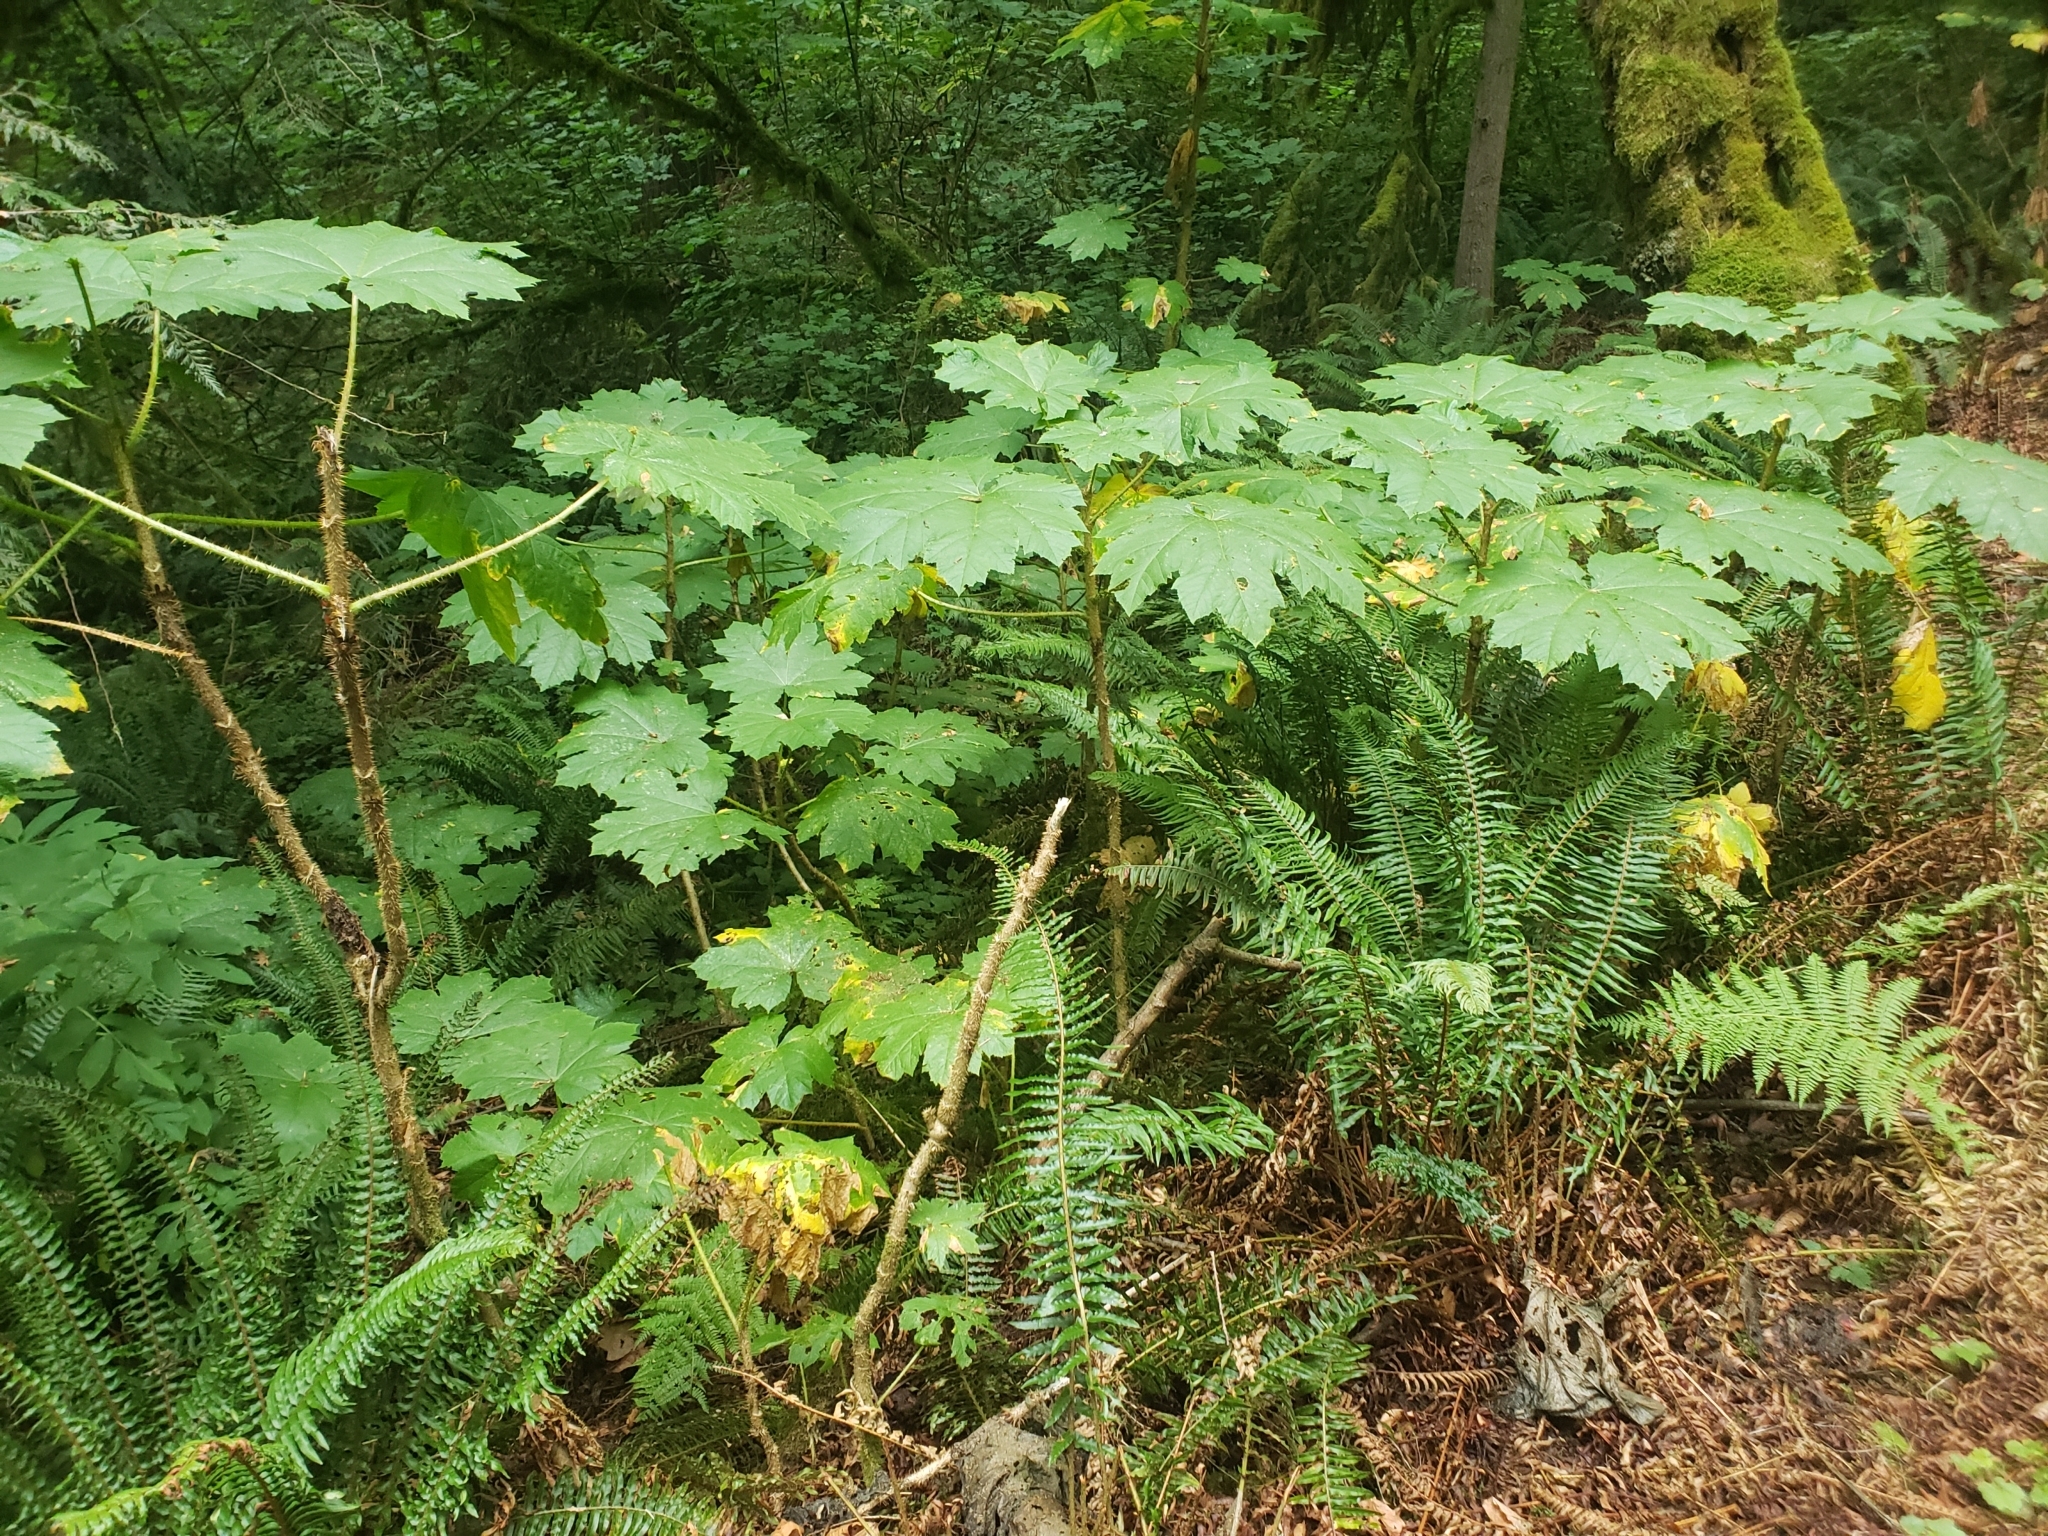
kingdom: Plantae
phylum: Tracheophyta
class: Magnoliopsida
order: Apiales
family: Araliaceae
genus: Oplopanax
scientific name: Oplopanax horridus
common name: Devil's walking-stick
